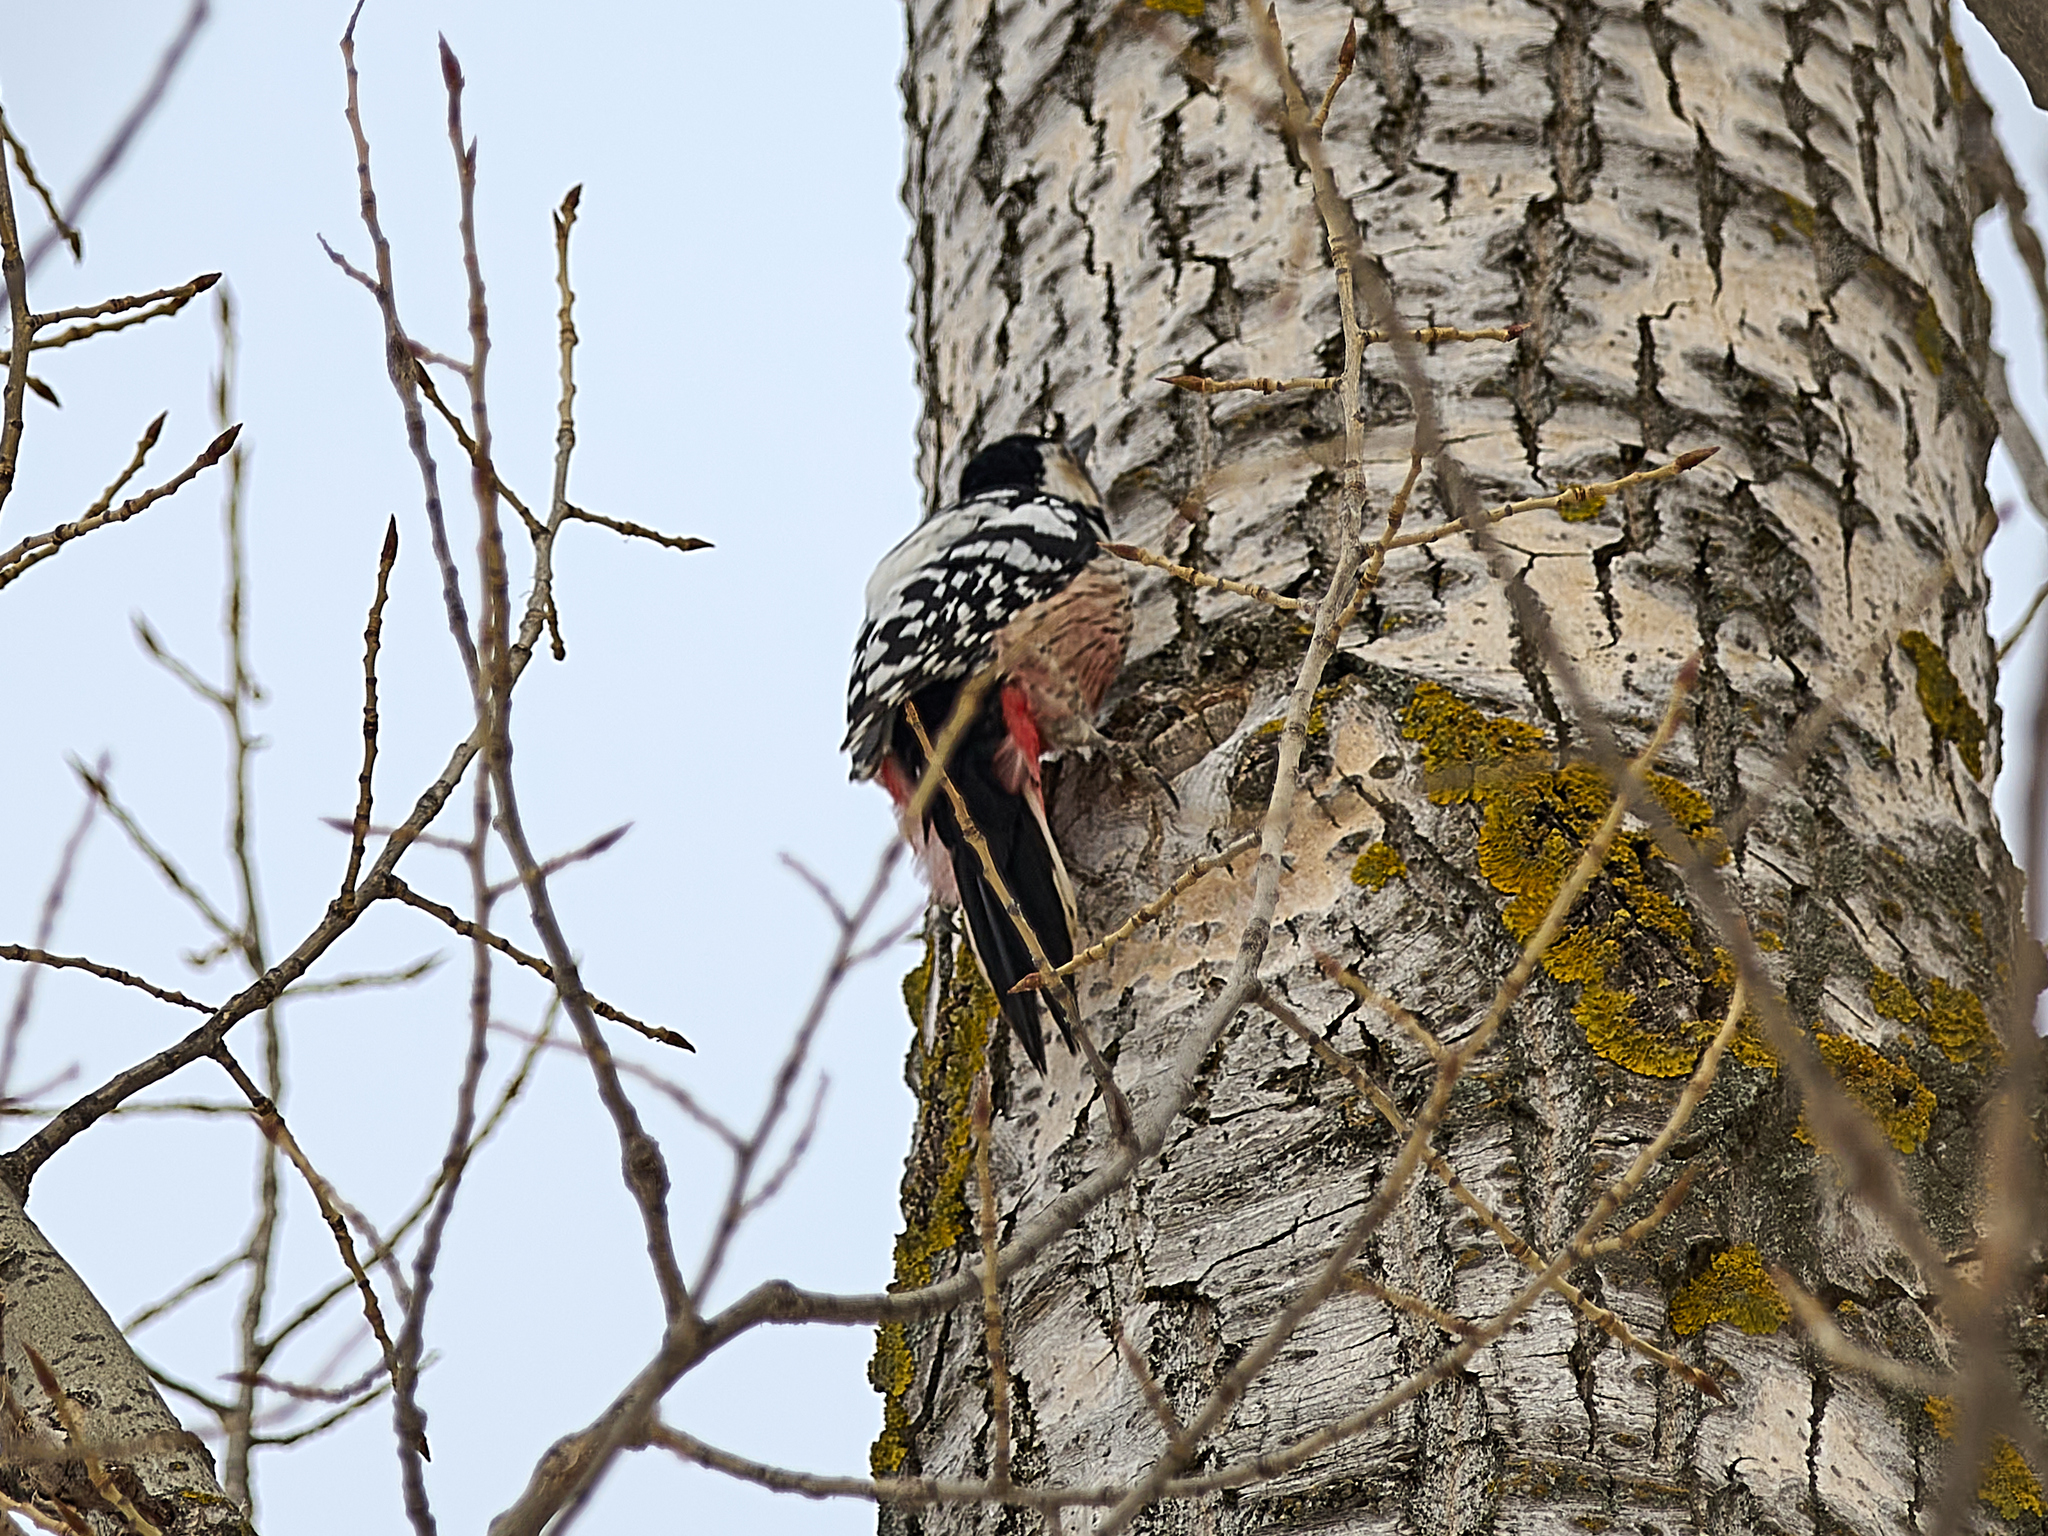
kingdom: Animalia
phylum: Chordata
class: Aves
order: Piciformes
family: Picidae
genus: Dendrocopos
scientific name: Dendrocopos leucotos
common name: White-backed woodpecker
